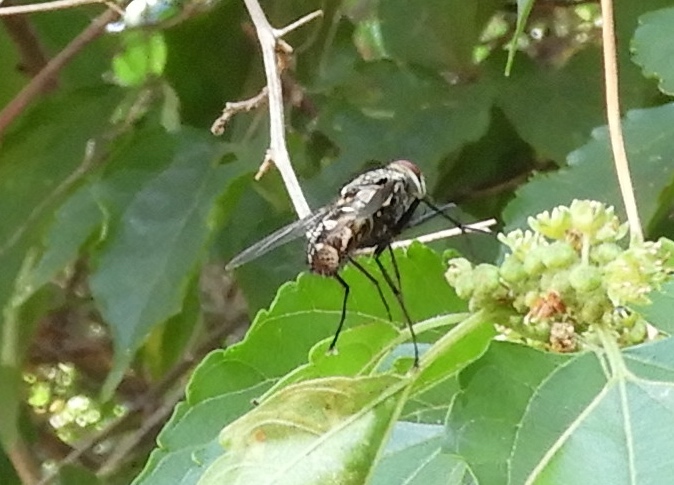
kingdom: Animalia
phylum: Arthropoda
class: Insecta
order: Diptera
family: Dexiidae
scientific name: Dexiidae
